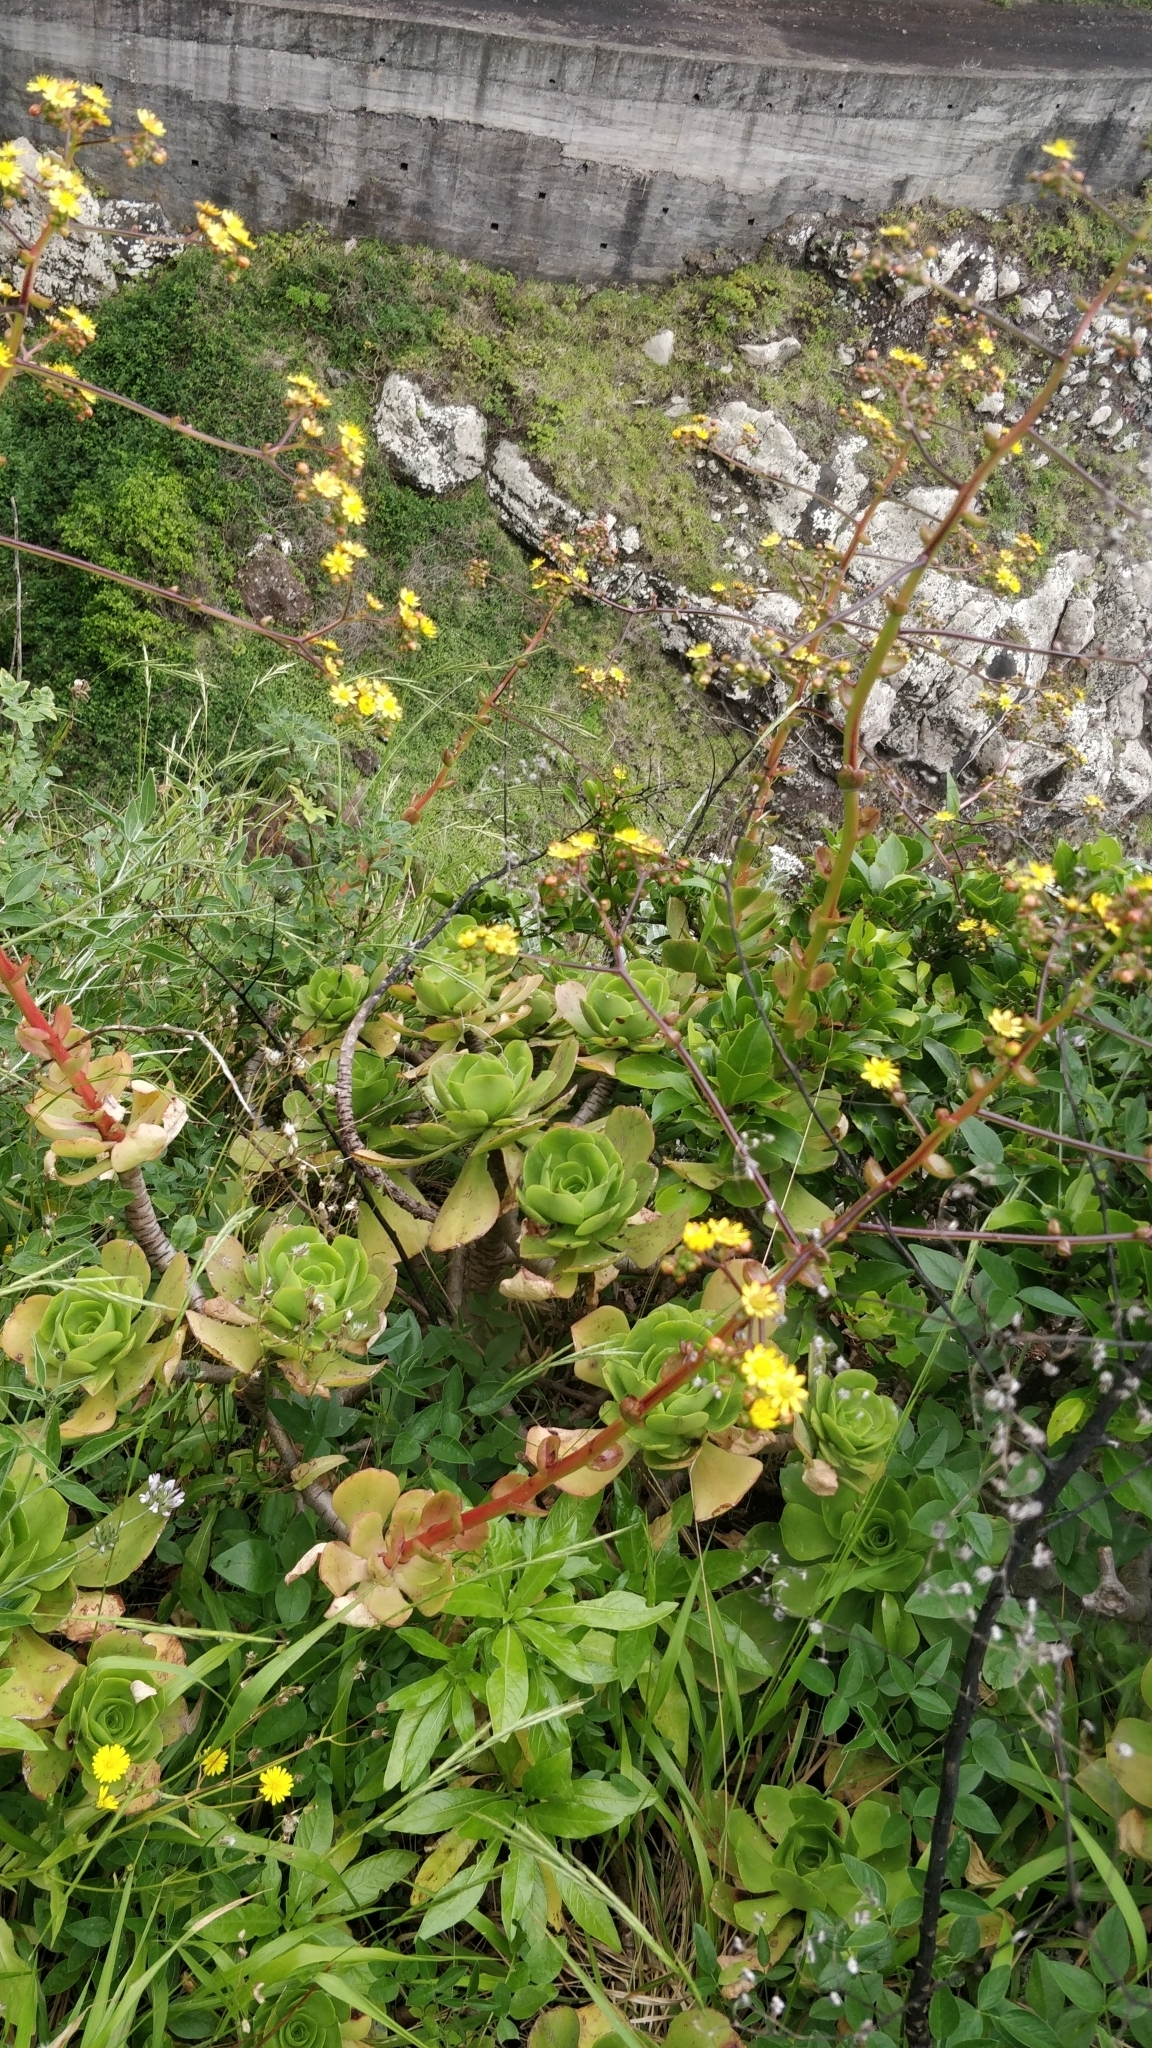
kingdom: Plantae
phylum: Tracheophyta
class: Magnoliopsida
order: Saxifragales
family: Crassulaceae
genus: Aeonium
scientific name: Aeonium glutinosum
